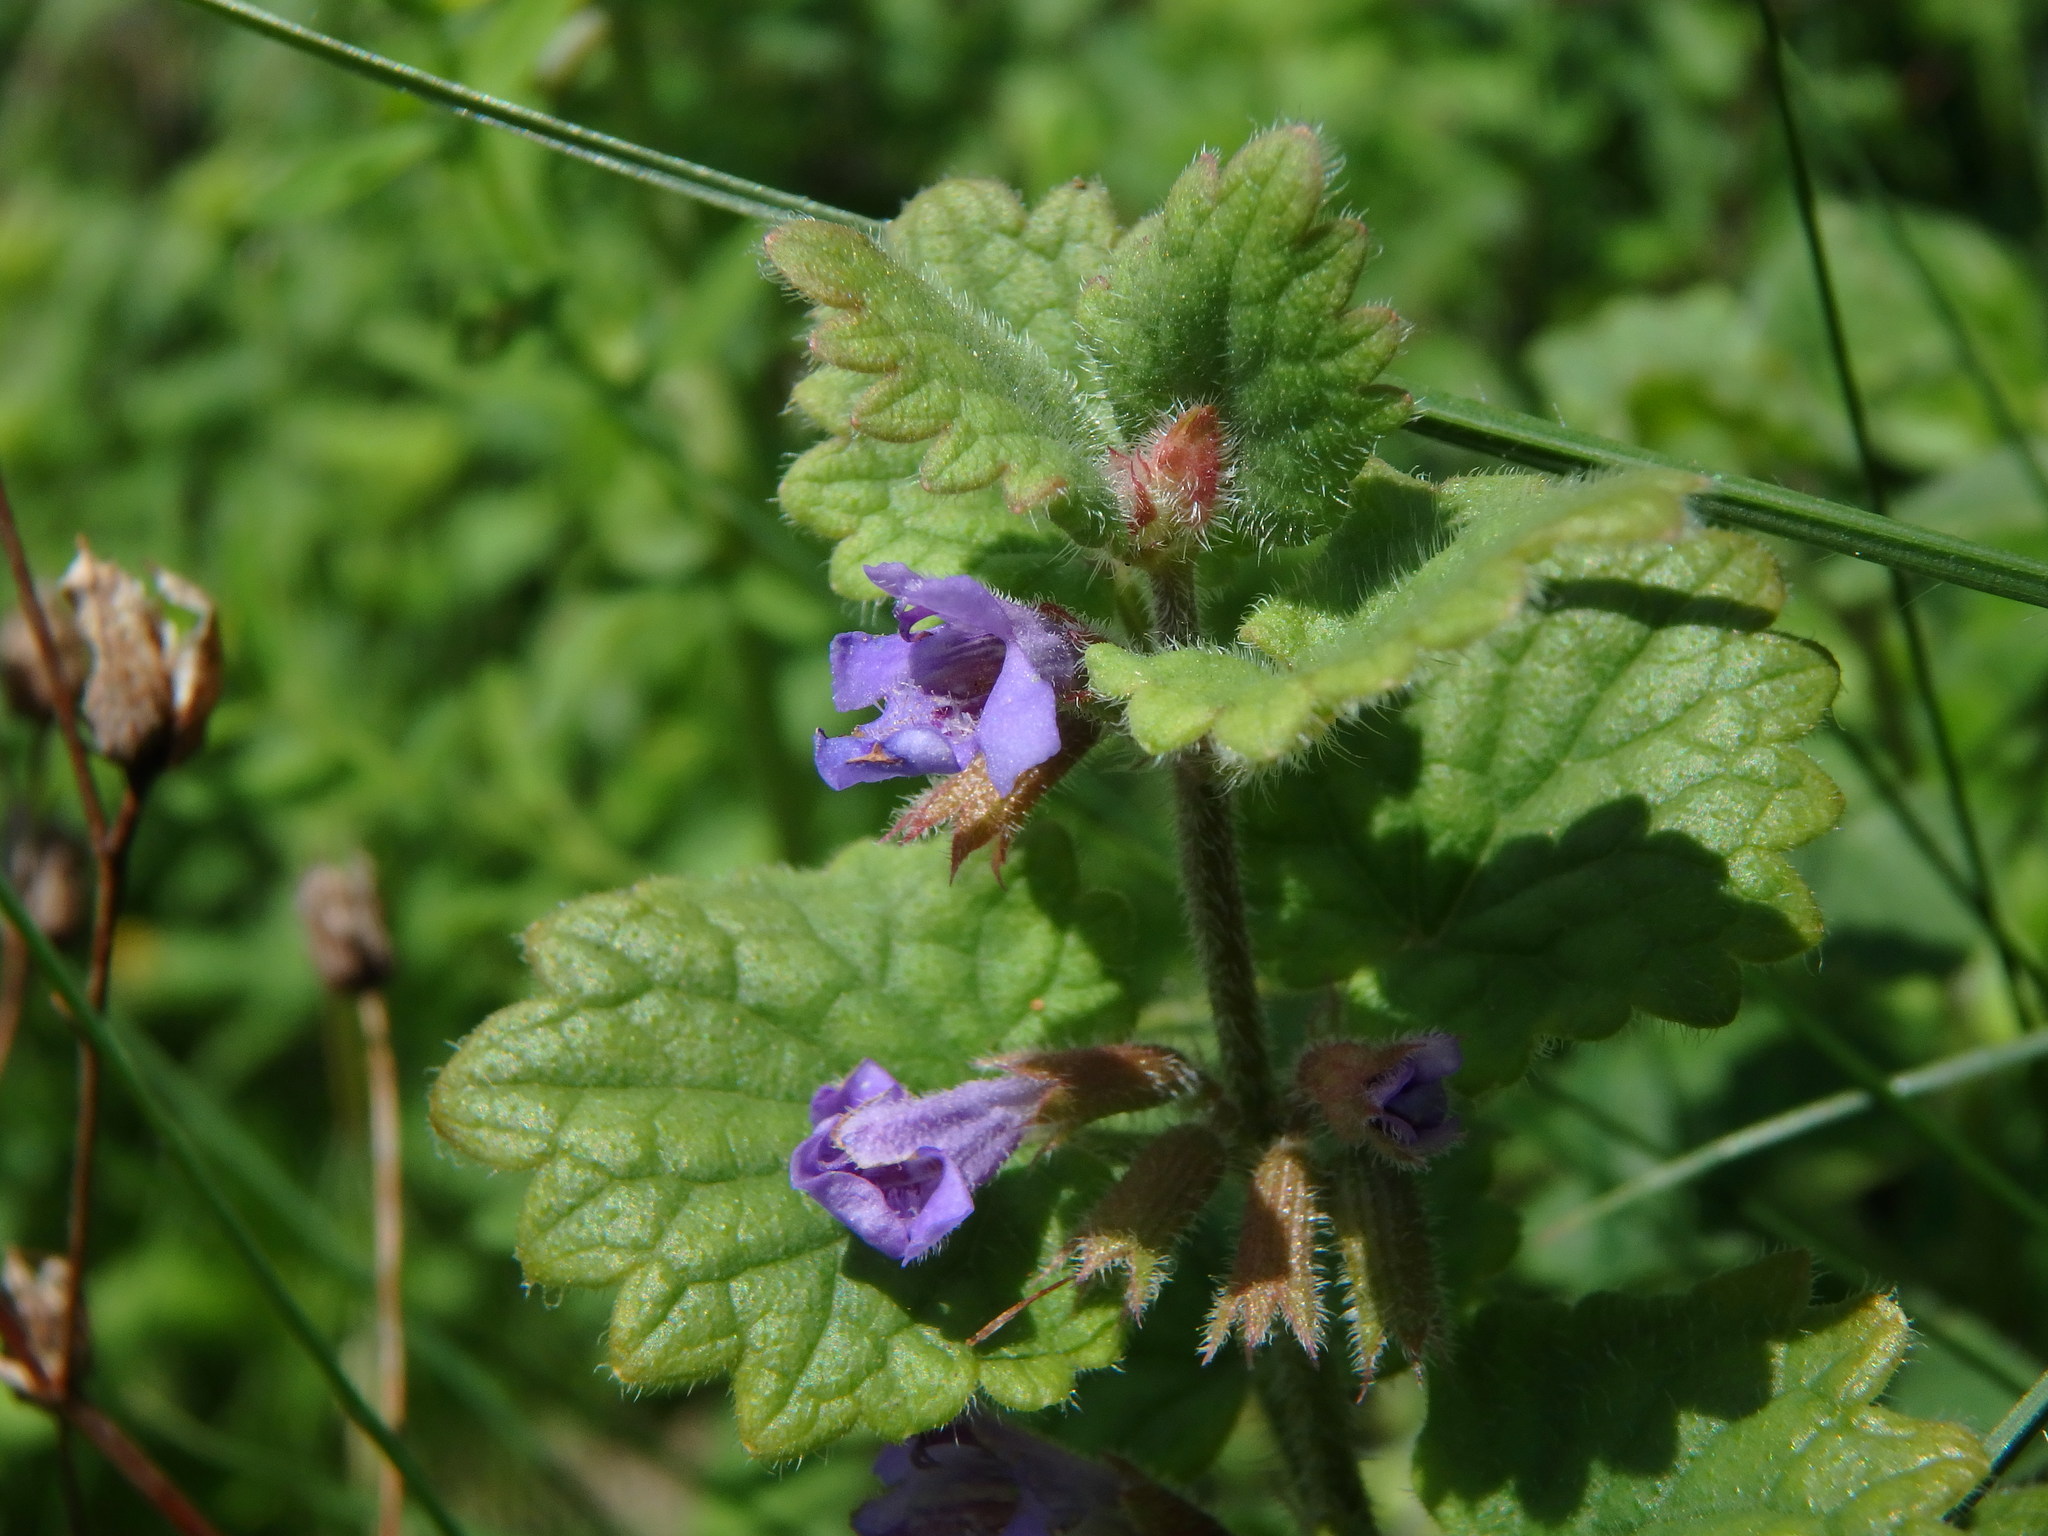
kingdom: Plantae
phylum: Tracheophyta
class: Magnoliopsida
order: Lamiales
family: Lamiaceae
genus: Glechoma
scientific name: Glechoma hederacea
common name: Ground ivy
